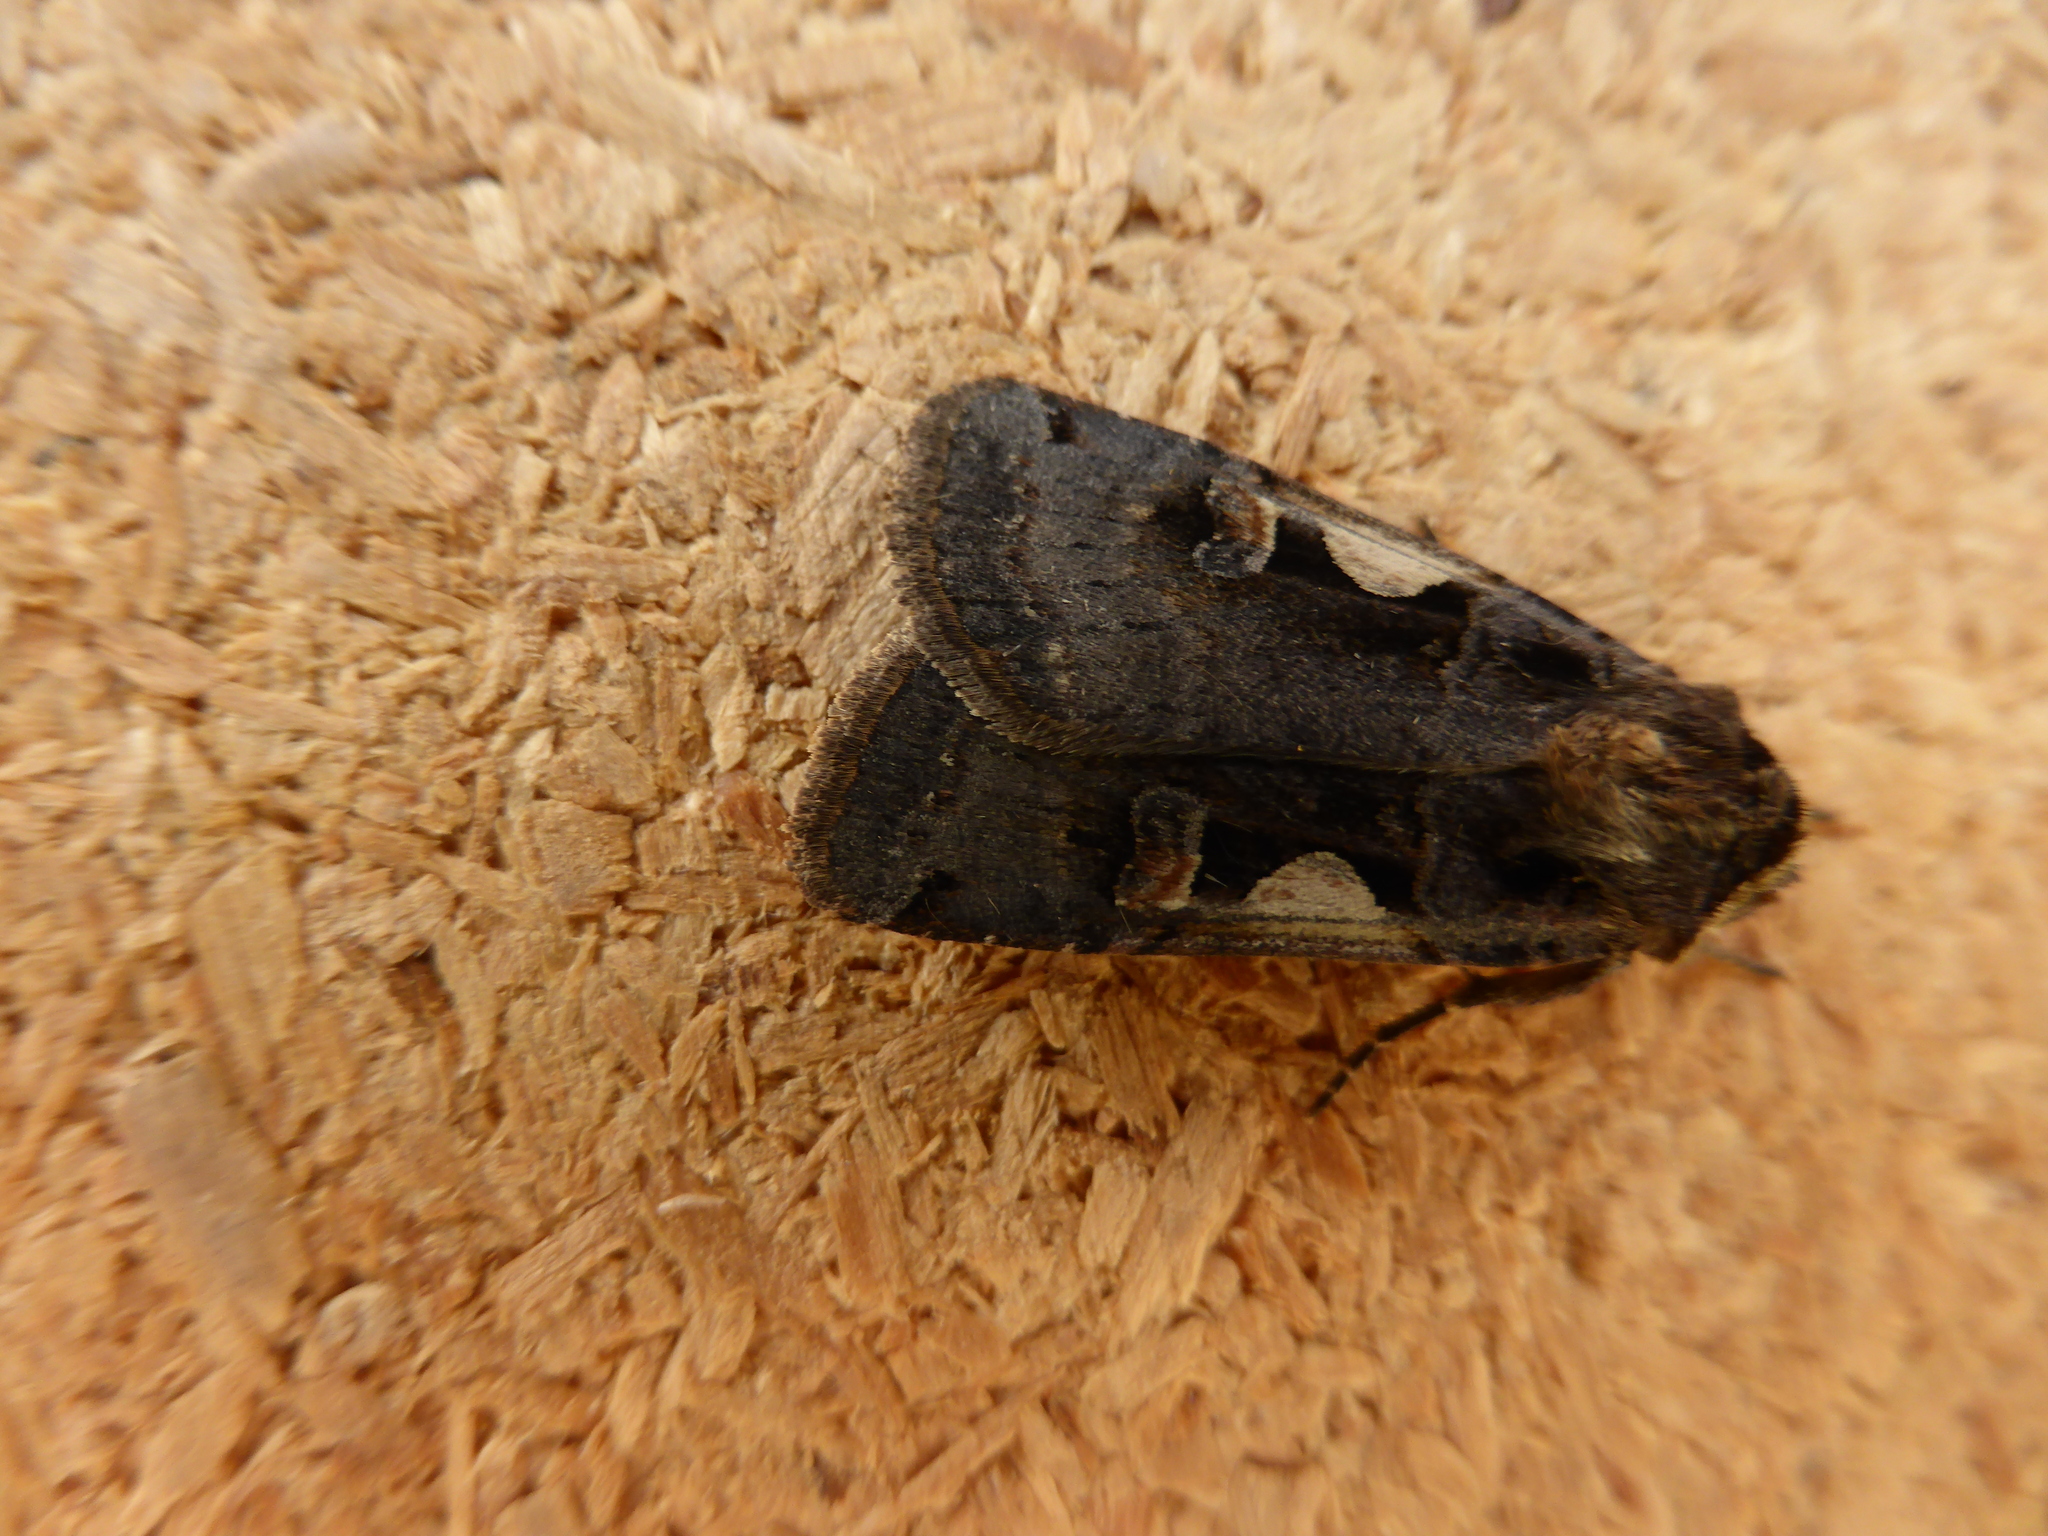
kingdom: Animalia
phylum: Arthropoda
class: Insecta
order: Lepidoptera
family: Noctuidae
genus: Xestia
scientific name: Xestia c-nigrum
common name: Setaceous hebrew character
